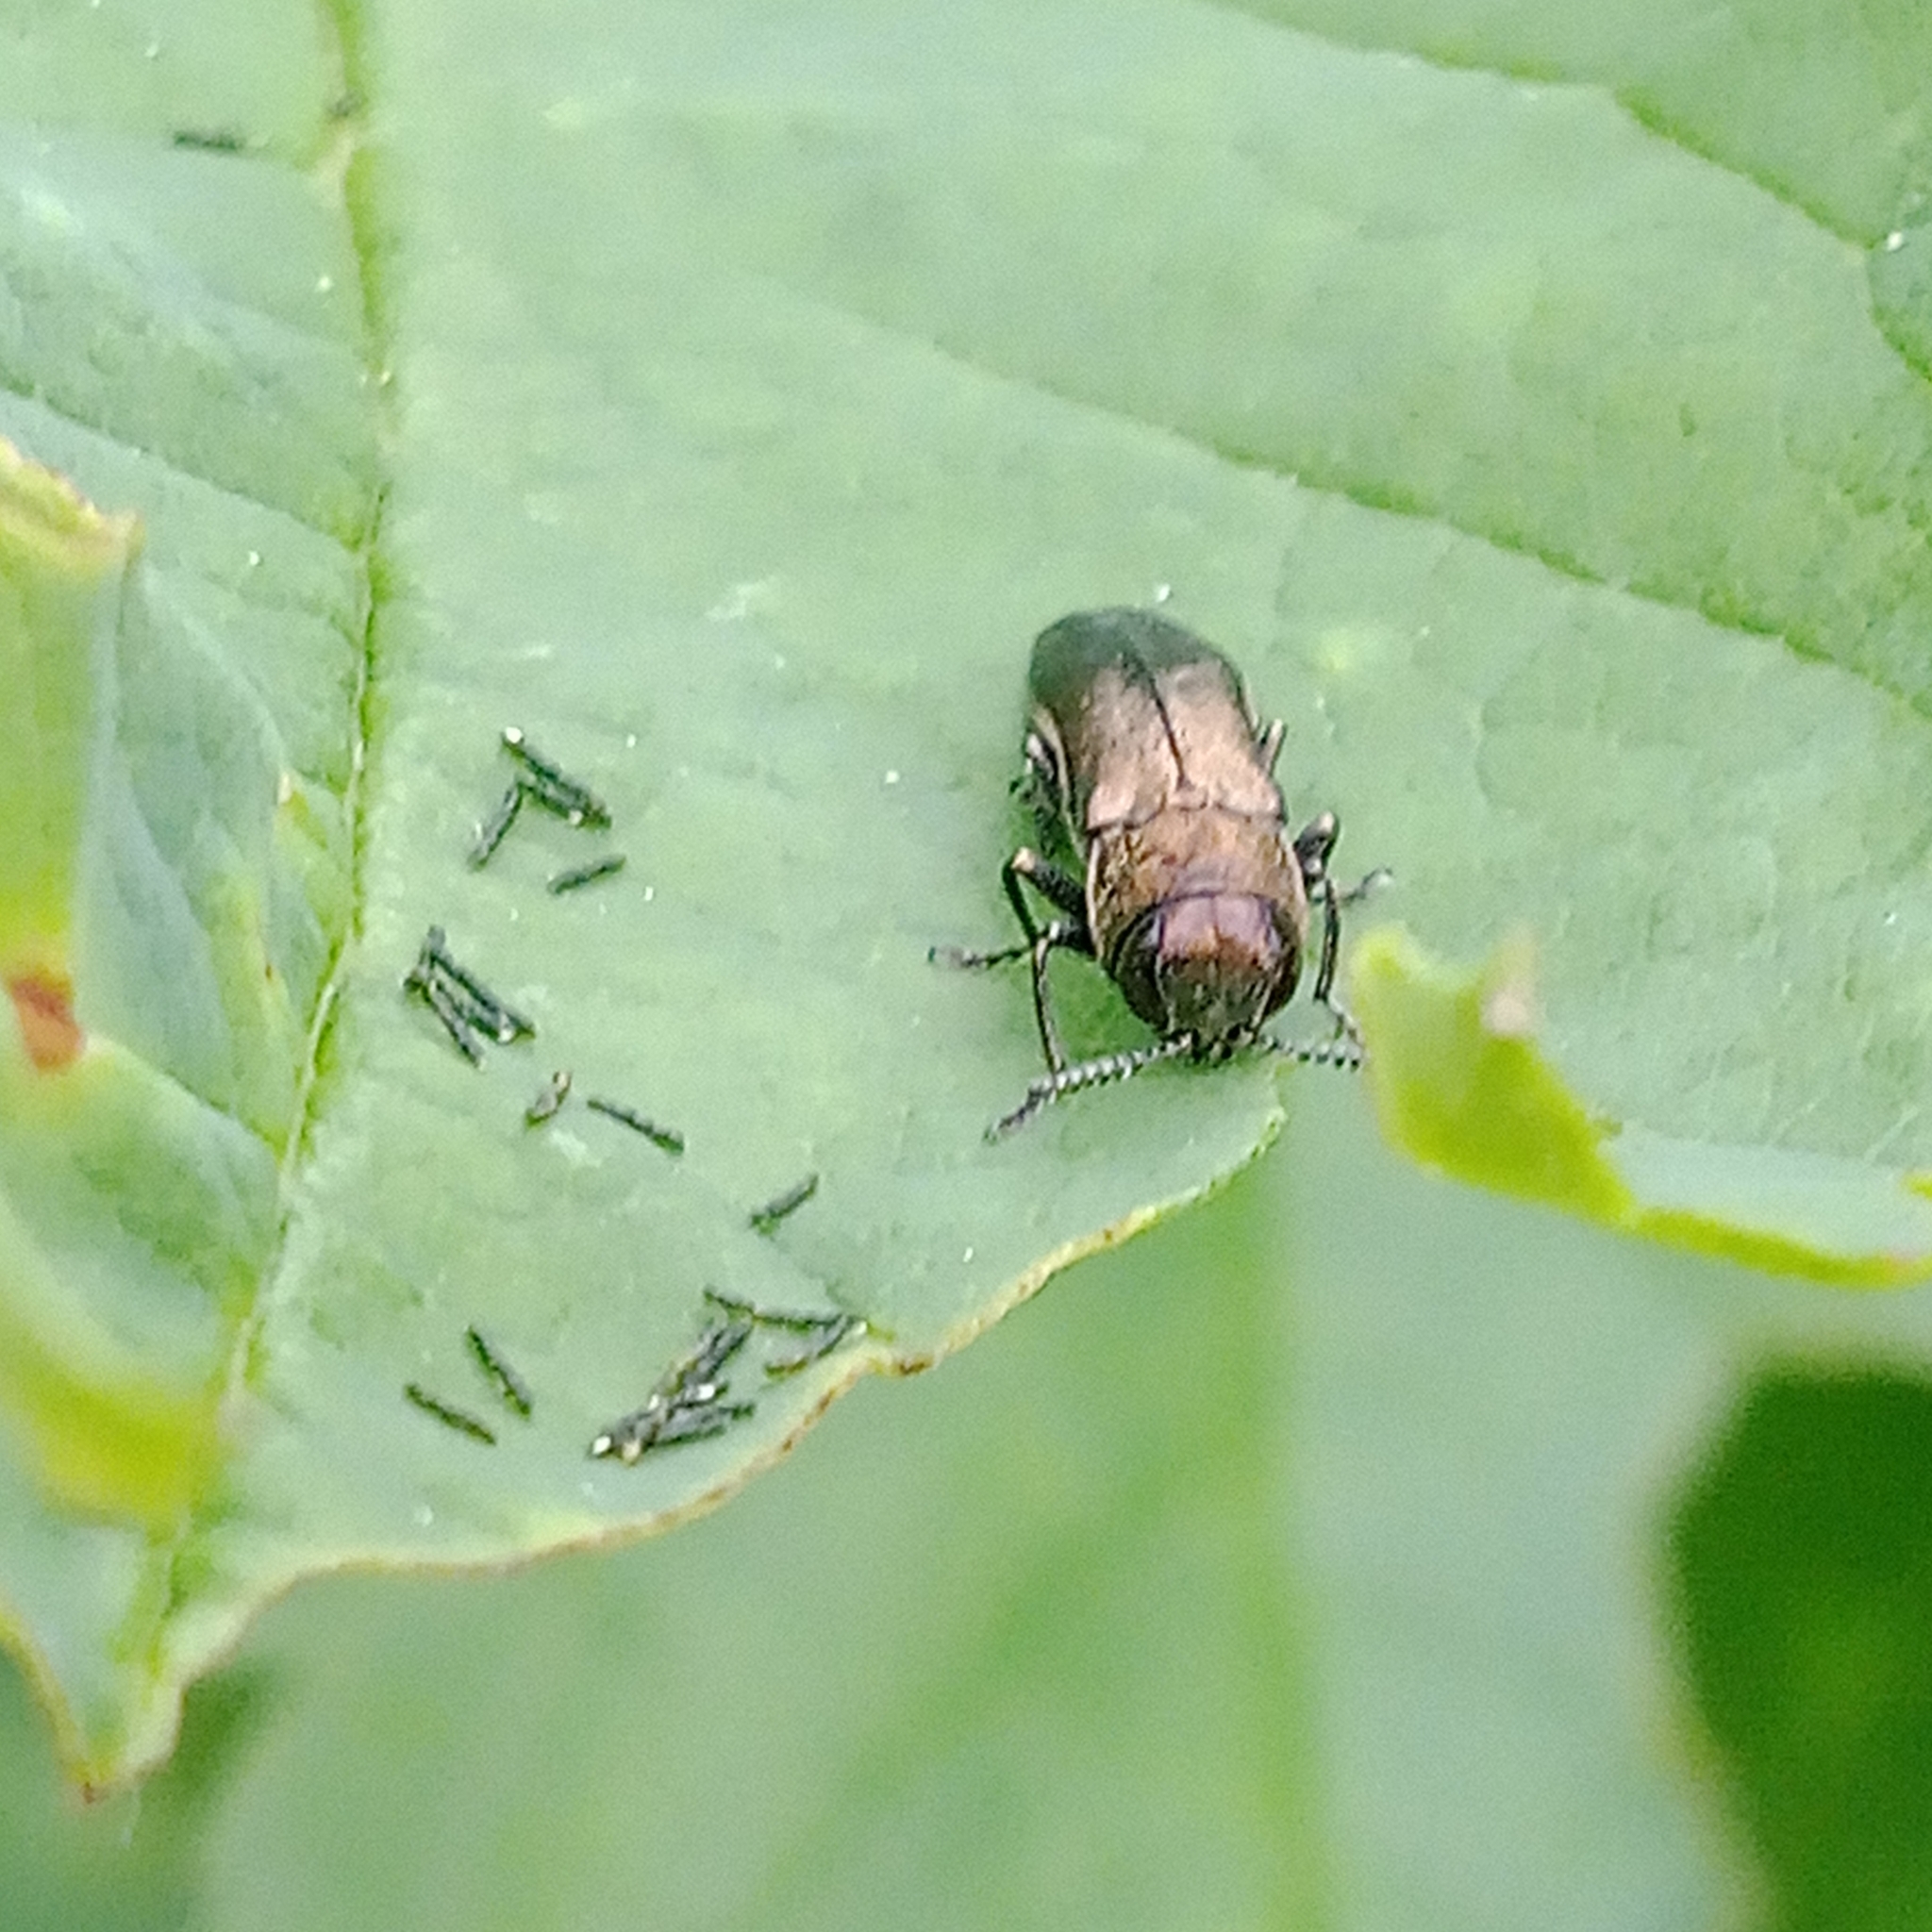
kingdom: Animalia
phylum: Arthropoda
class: Insecta
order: Coleoptera
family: Buprestidae
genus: Agrilus
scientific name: Agrilus cuprescens
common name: Rose stem girdler
